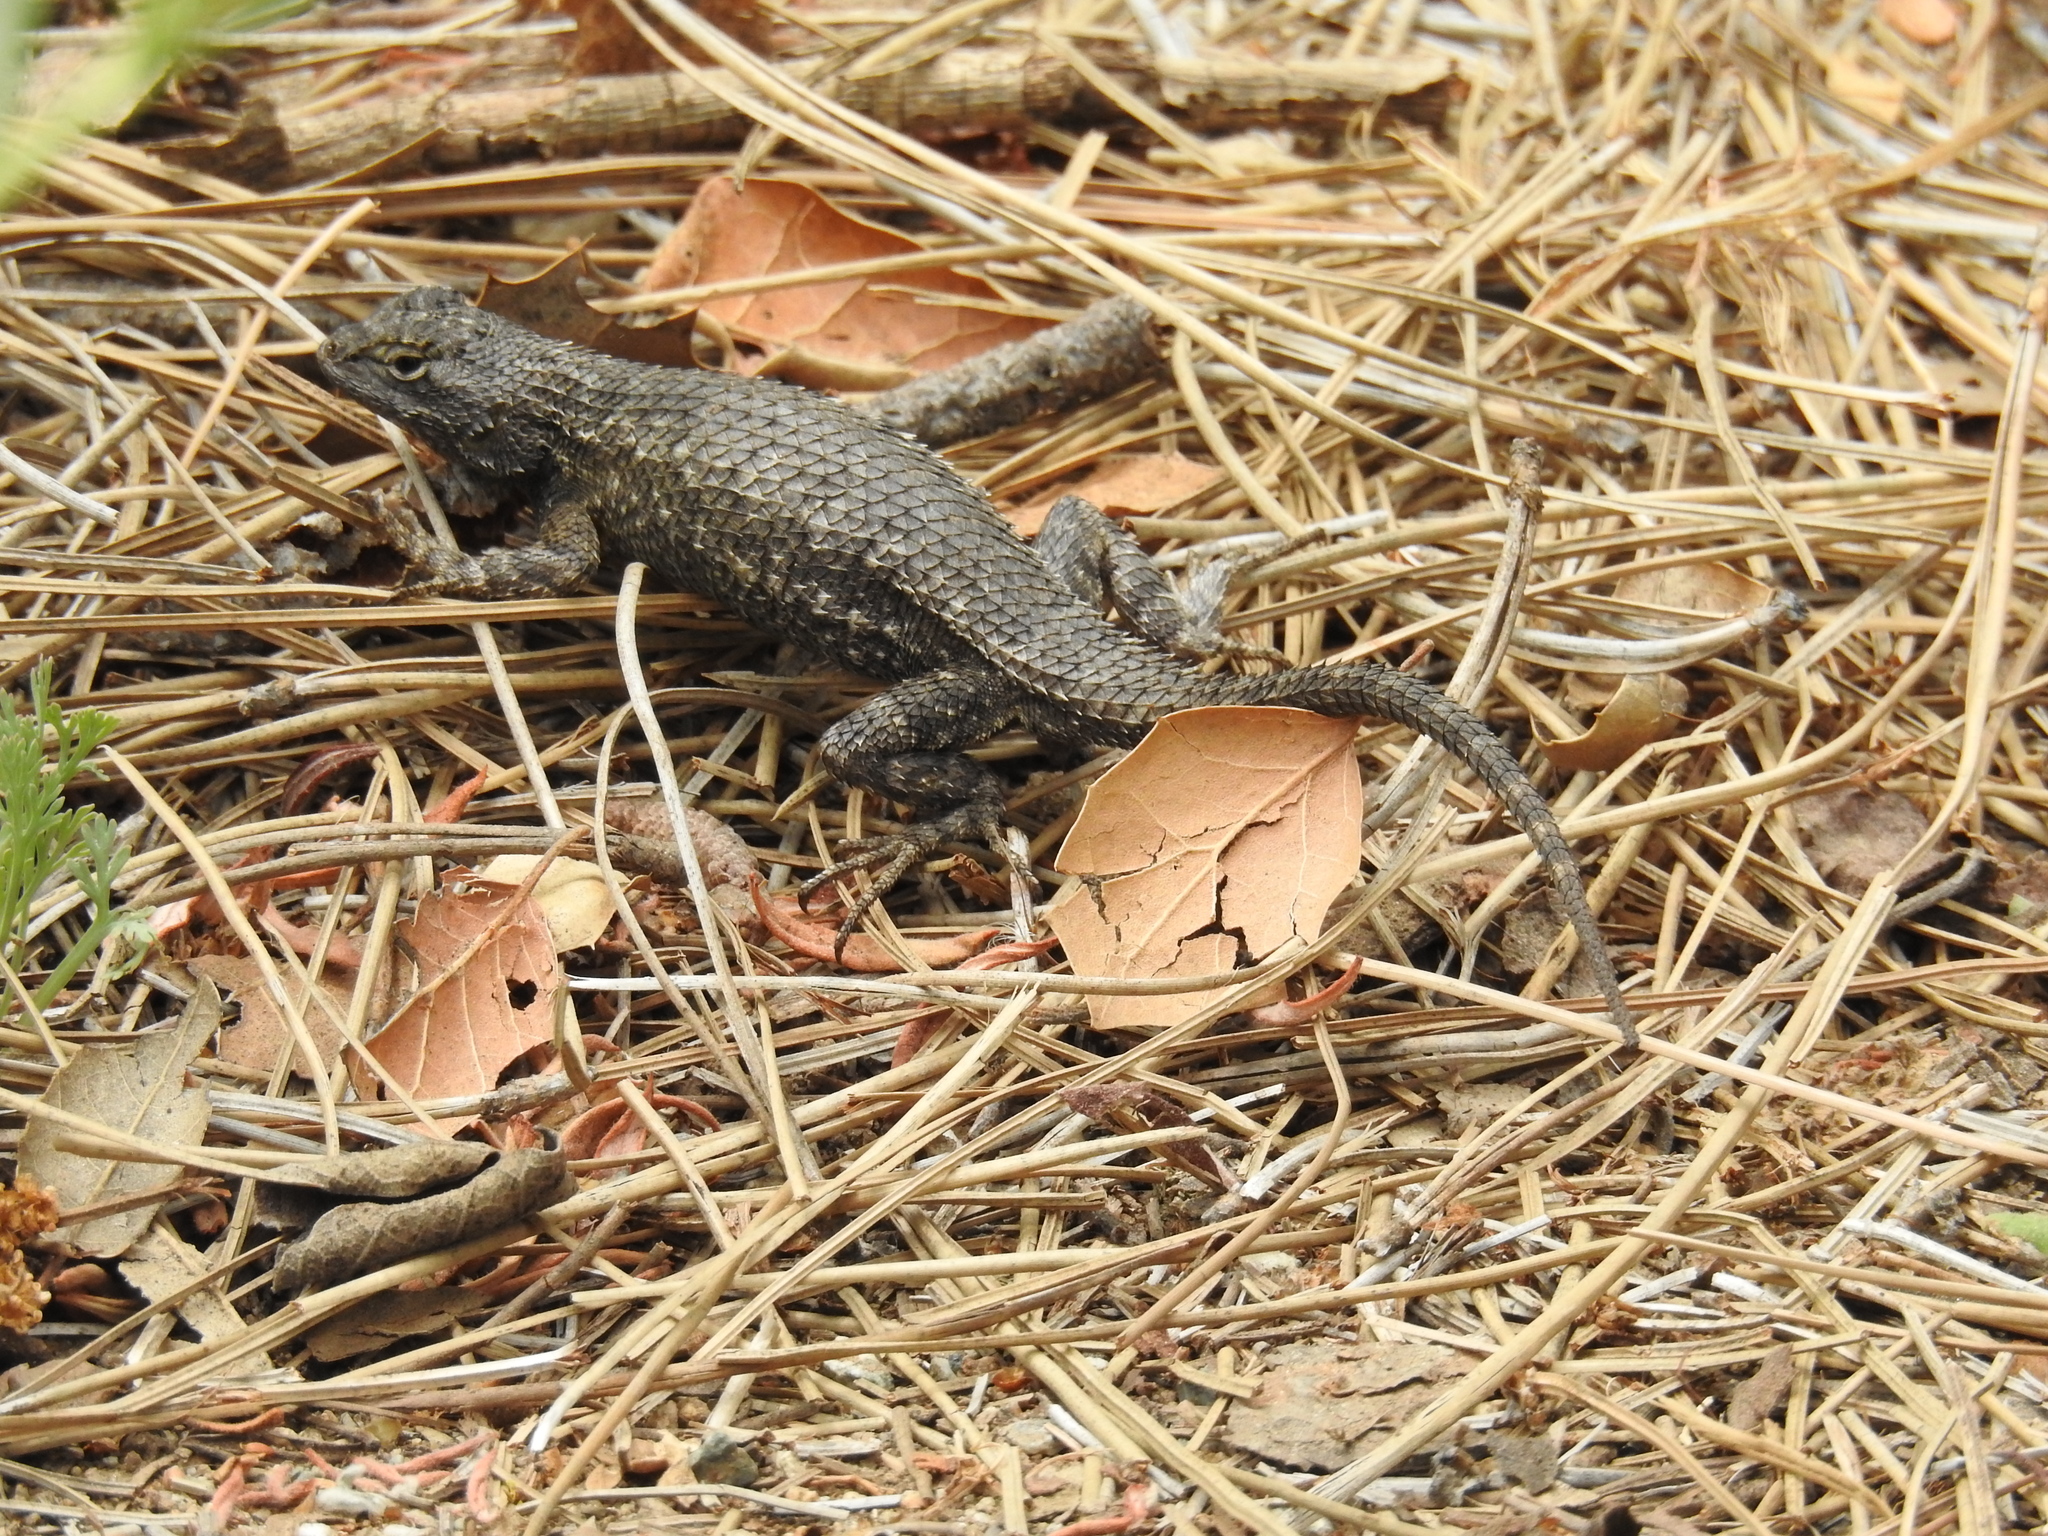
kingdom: Animalia
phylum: Chordata
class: Squamata
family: Phrynosomatidae
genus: Sceloporus
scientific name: Sceloporus occidentalis
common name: Western fence lizard
